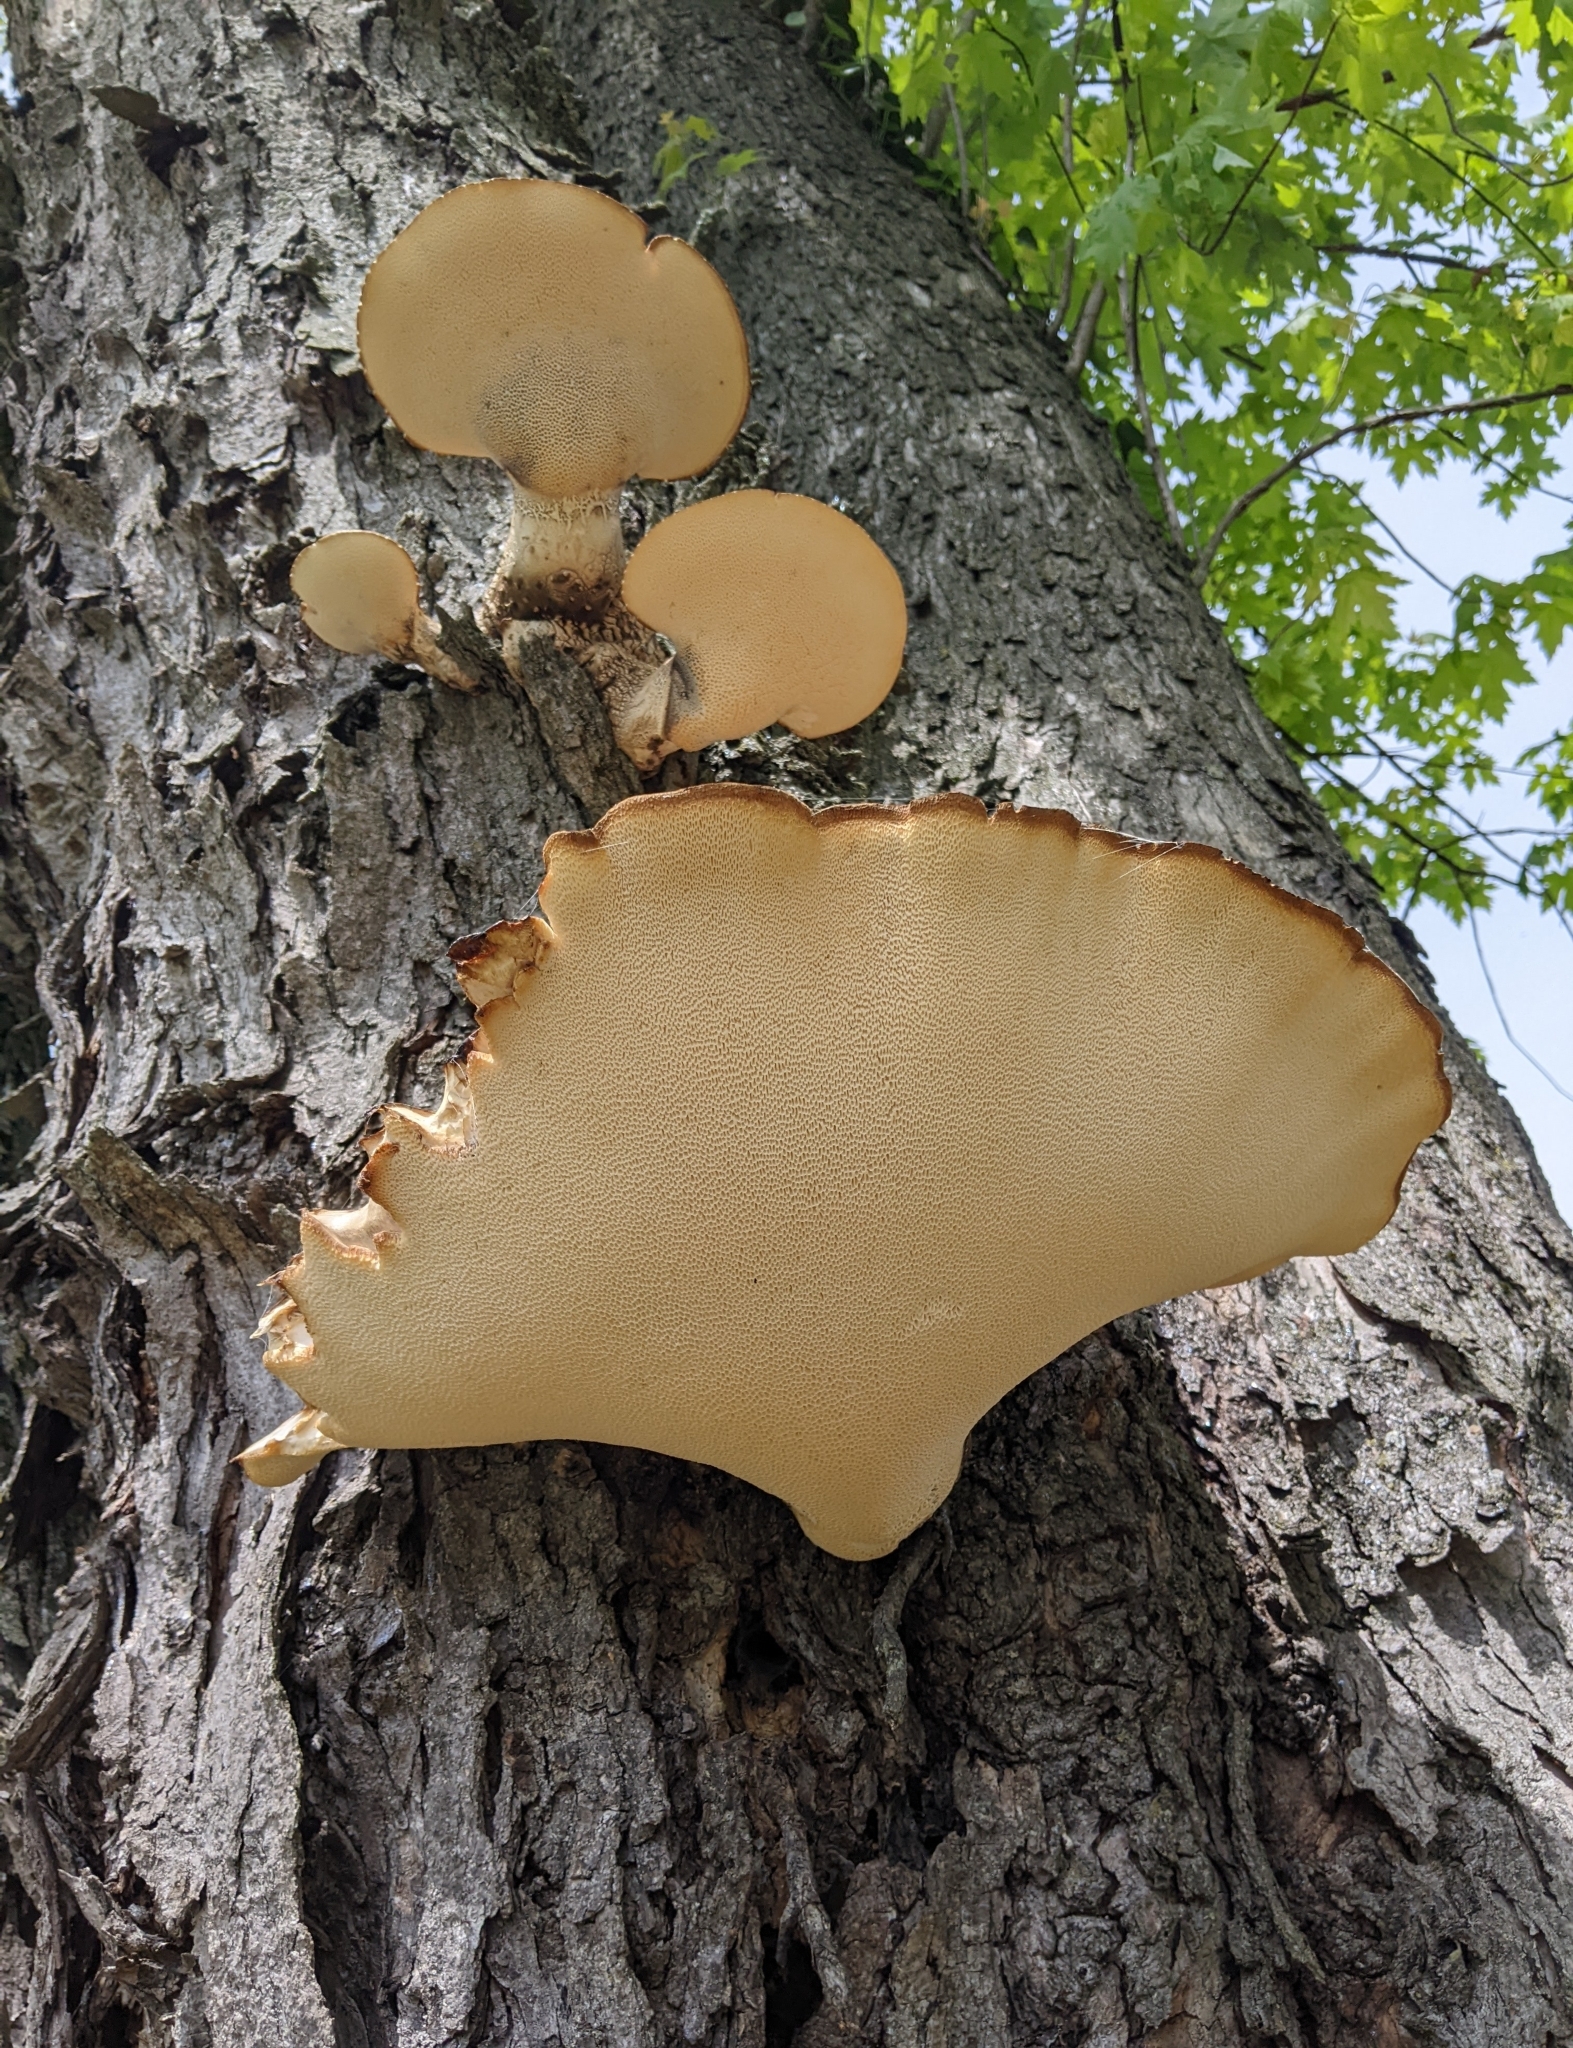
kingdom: Fungi
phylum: Basidiomycota
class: Agaricomycetes
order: Polyporales
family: Polyporaceae
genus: Cerioporus
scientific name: Cerioporus squamosus
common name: Dryad's saddle
